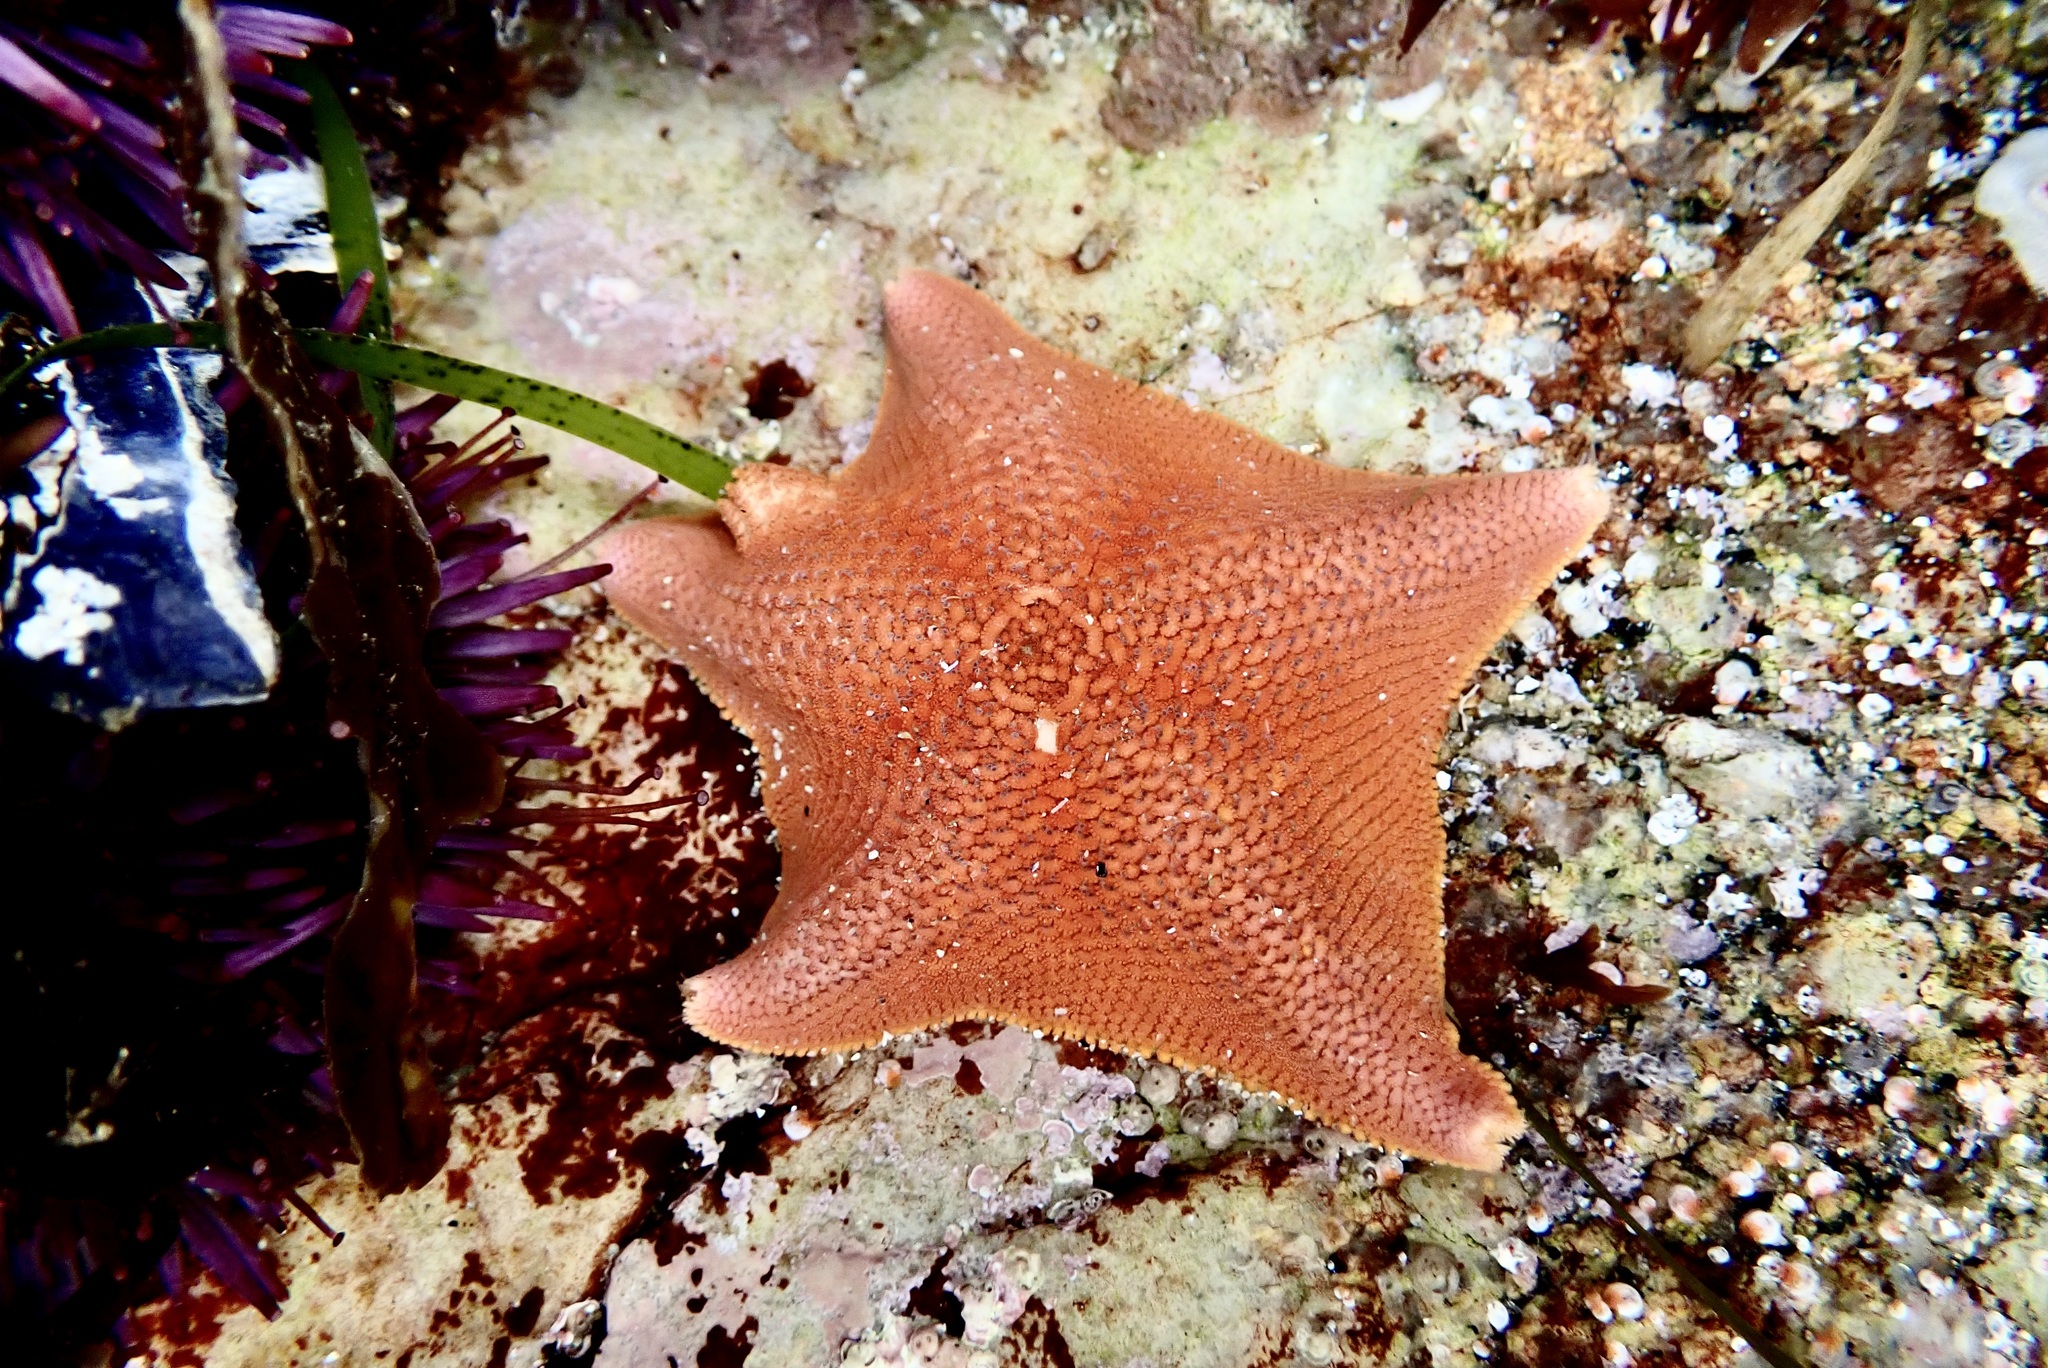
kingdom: Animalia
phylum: Echinodermata
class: Asteroidea
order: Valvatida
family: Asterinidae
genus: Patiria
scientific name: Patiria miniata
